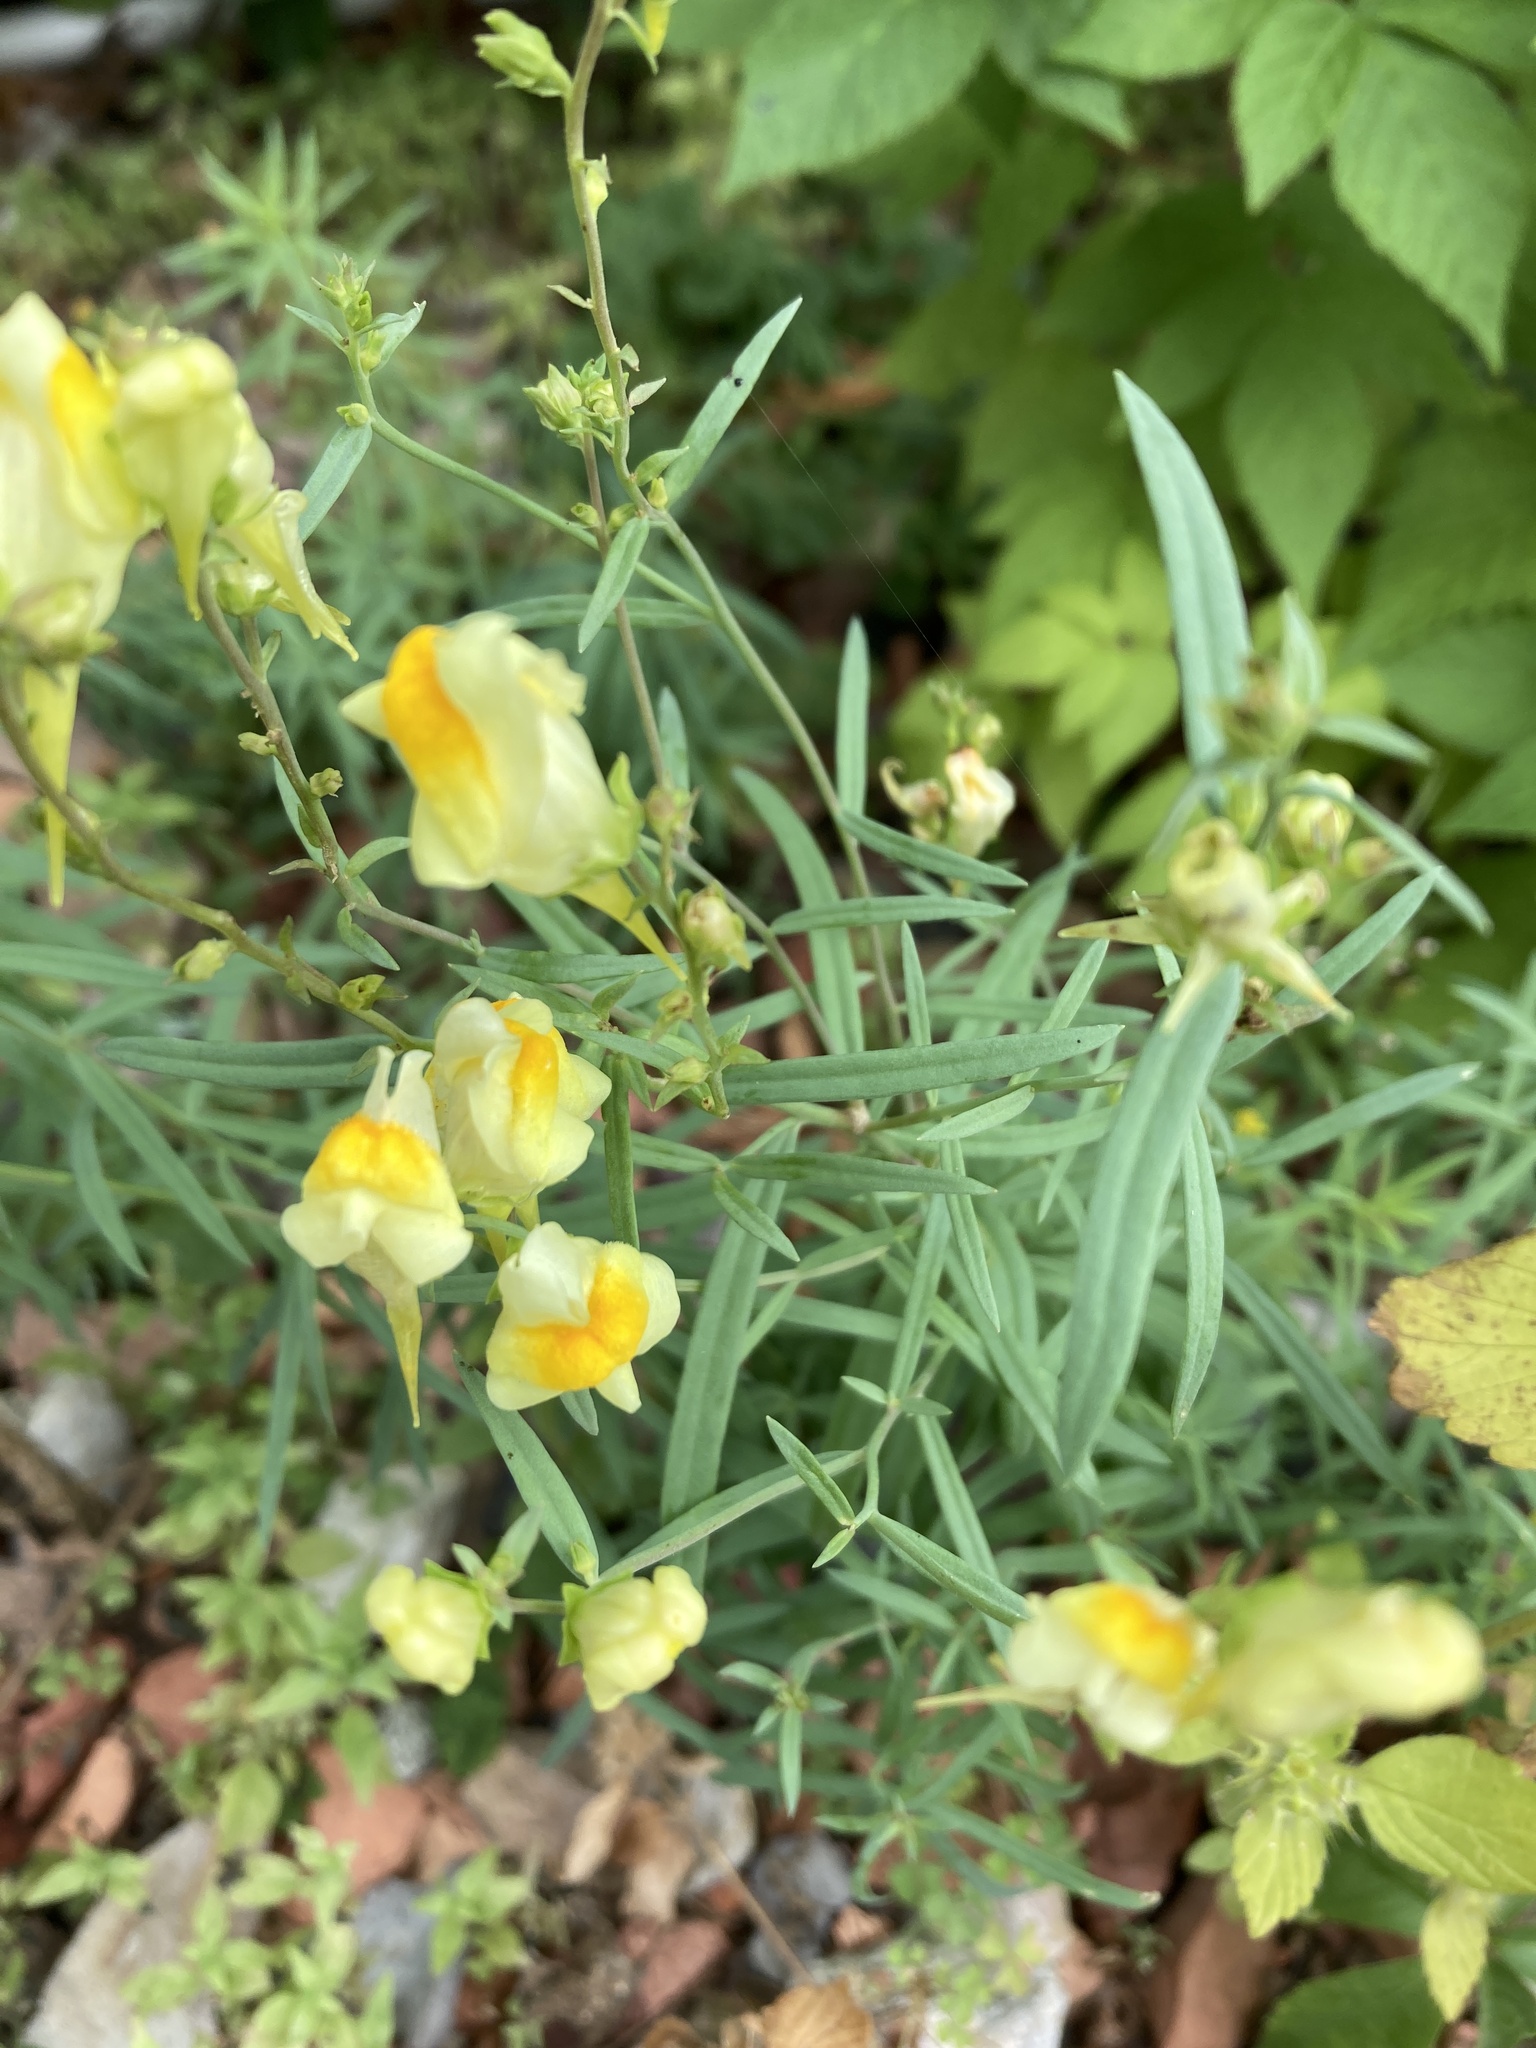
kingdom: Plantae
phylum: Tracheophyta
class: Magnoliopsida
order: Lamiales
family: Plantaginaceae
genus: Linaria
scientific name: Linaria vulgaris
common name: Butter and eggs
